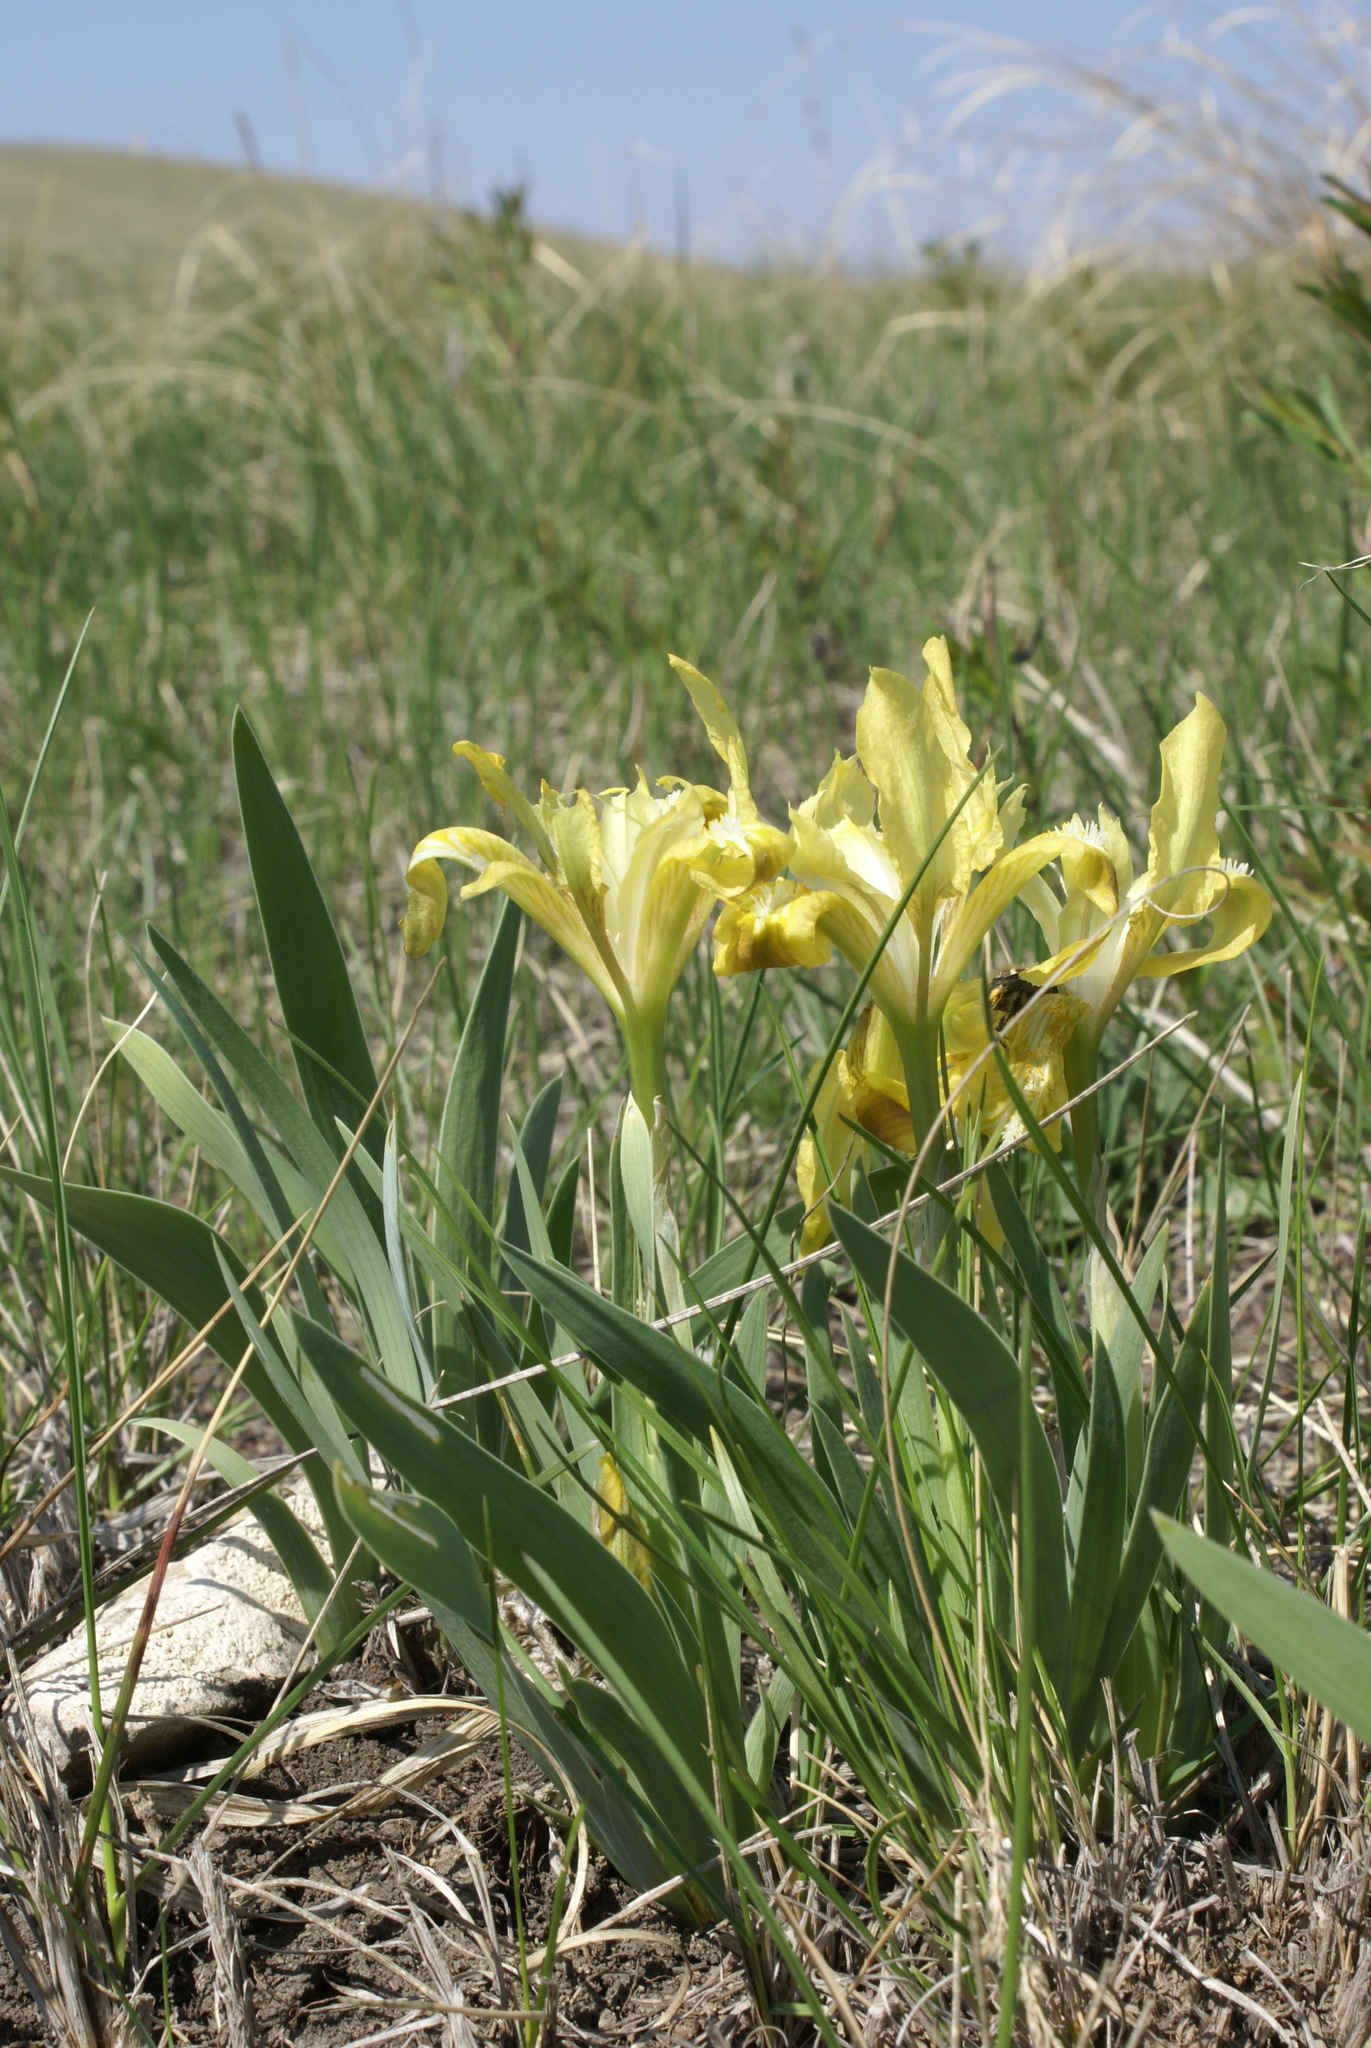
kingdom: Plantae
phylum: Tracheophyta
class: Liliopsida
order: Asparagales
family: Iridaceae
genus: Iris
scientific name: Iris pumila
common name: Dwarf iris
